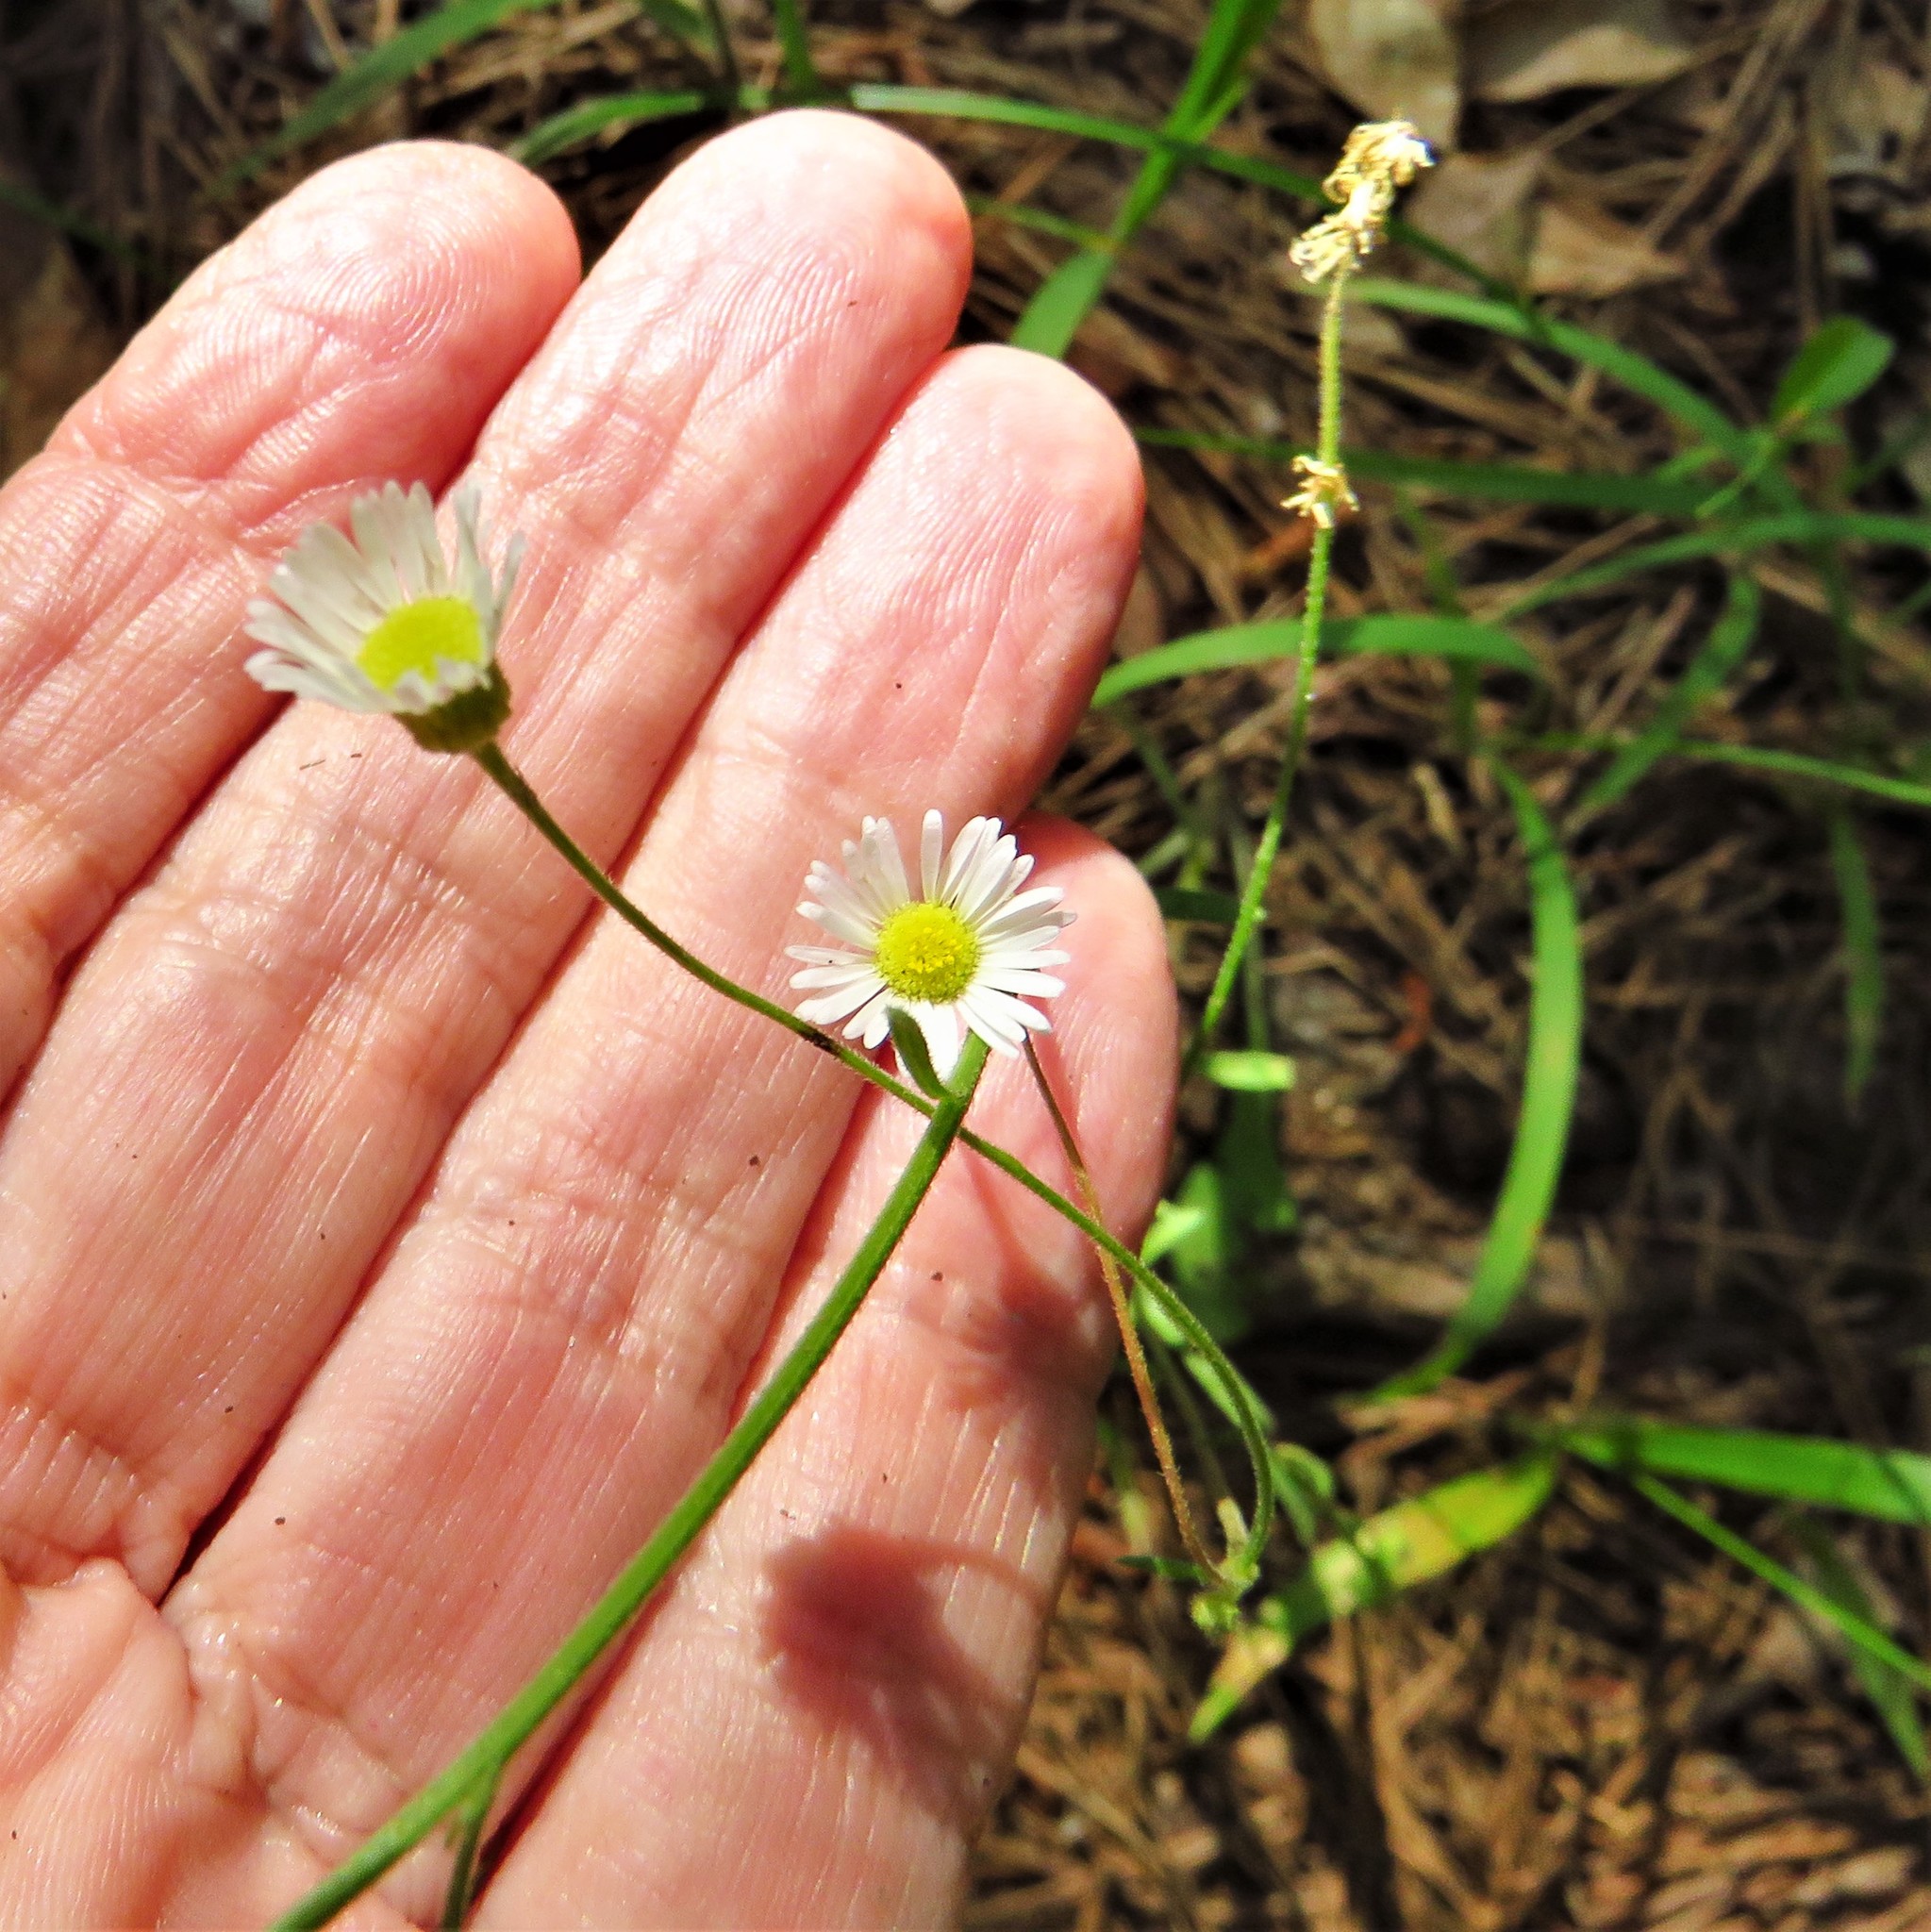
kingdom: Plantae
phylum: Tracheophyta
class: Magnoliopsida
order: Asterales
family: Asteraceae
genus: Erigeron
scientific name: Erigeron strigosus
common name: Common eastern fleabane
